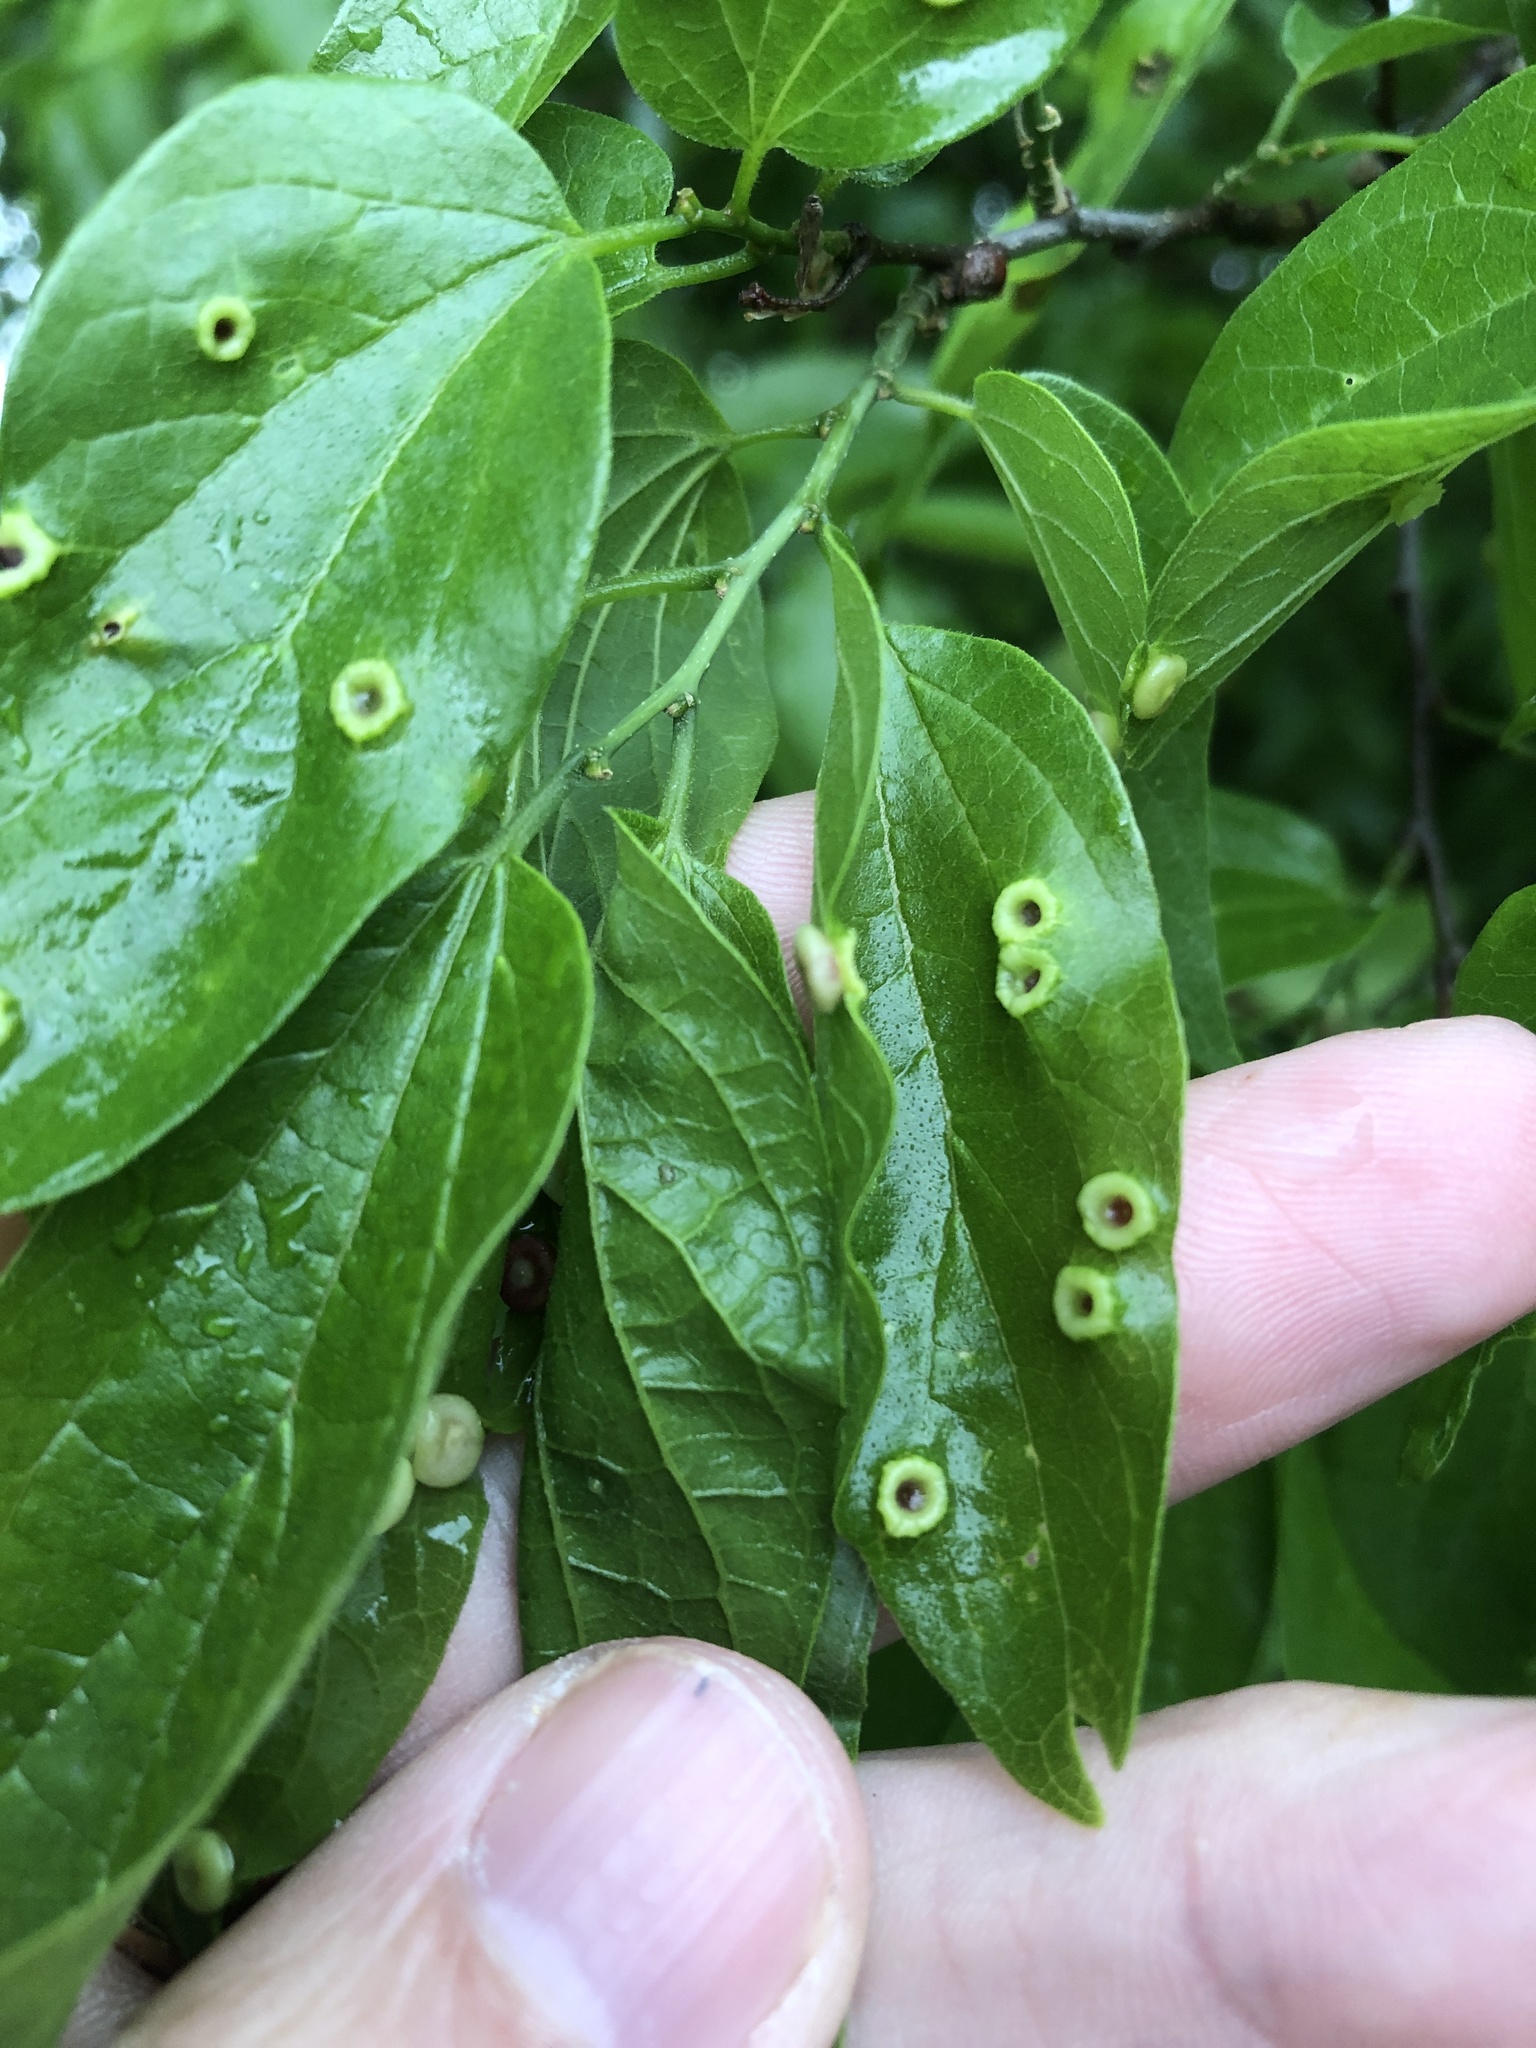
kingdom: Animalia
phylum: Arthropoda
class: Insecta
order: Hemiptera
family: Aphalaridae
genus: Pachypsylla
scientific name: Pachypsylla celtidismamma
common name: Hackberry nipplegall psyllid
